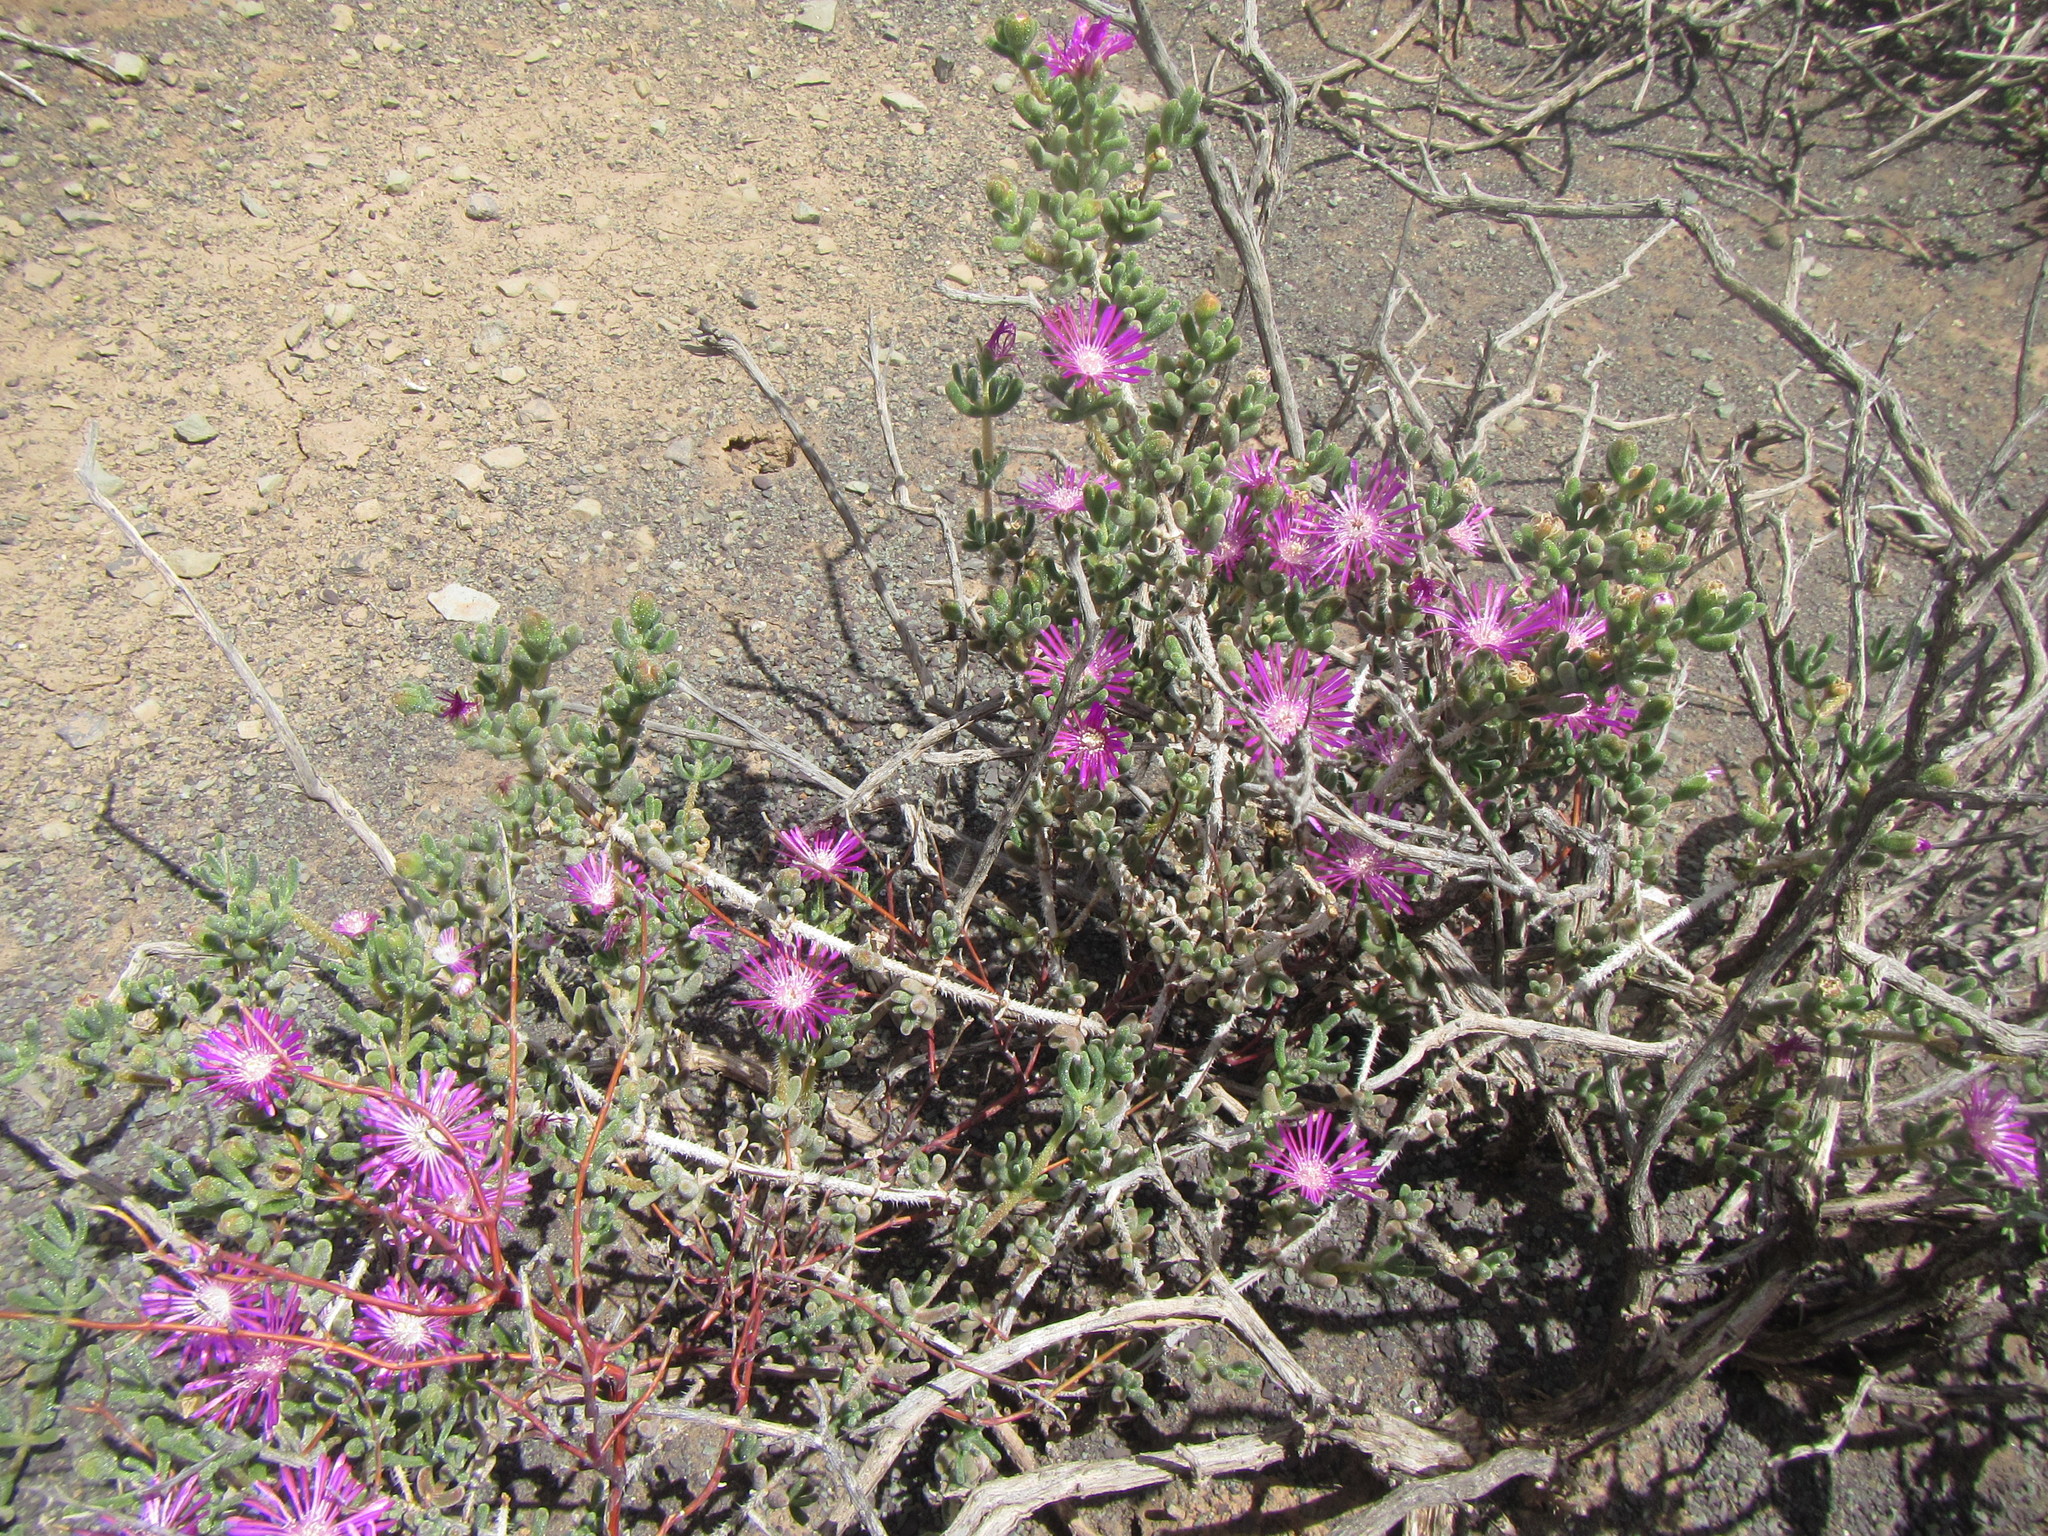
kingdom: Plantae
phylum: Tracheophyta
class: Magnoliopsida
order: Caryophyllales
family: Aizoaceae
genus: Drosanthemum
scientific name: Drosanthemum hispidum
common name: Hairy dewflower
